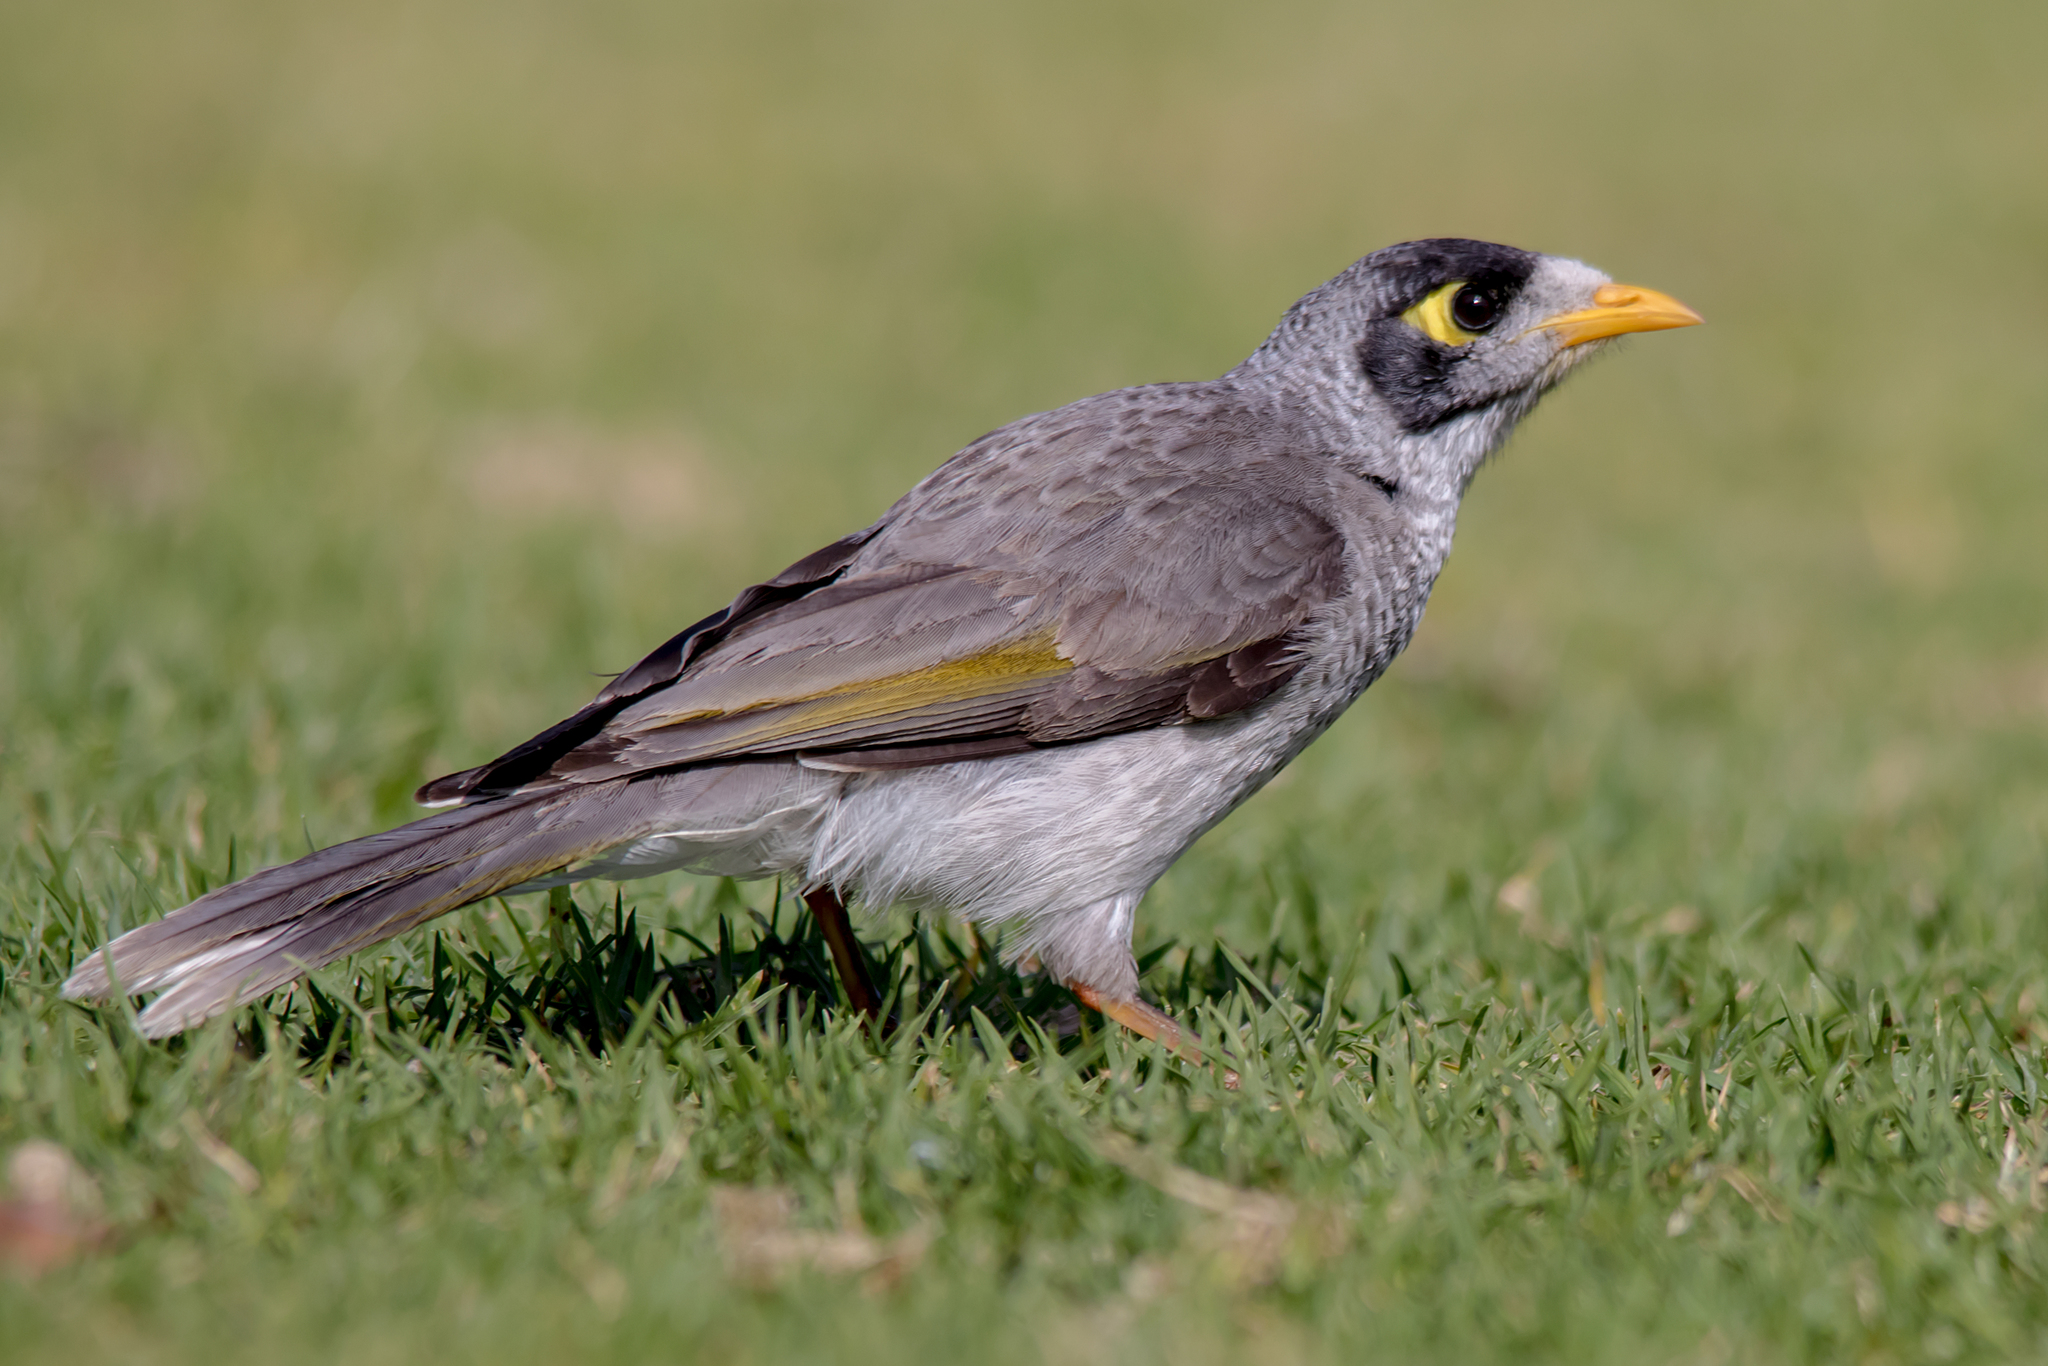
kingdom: Animalia
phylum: Chordata
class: Aves
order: Passeriformes
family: Meliphagidae
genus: Manorina
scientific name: Manorina melanocephala
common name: Noisy miner
